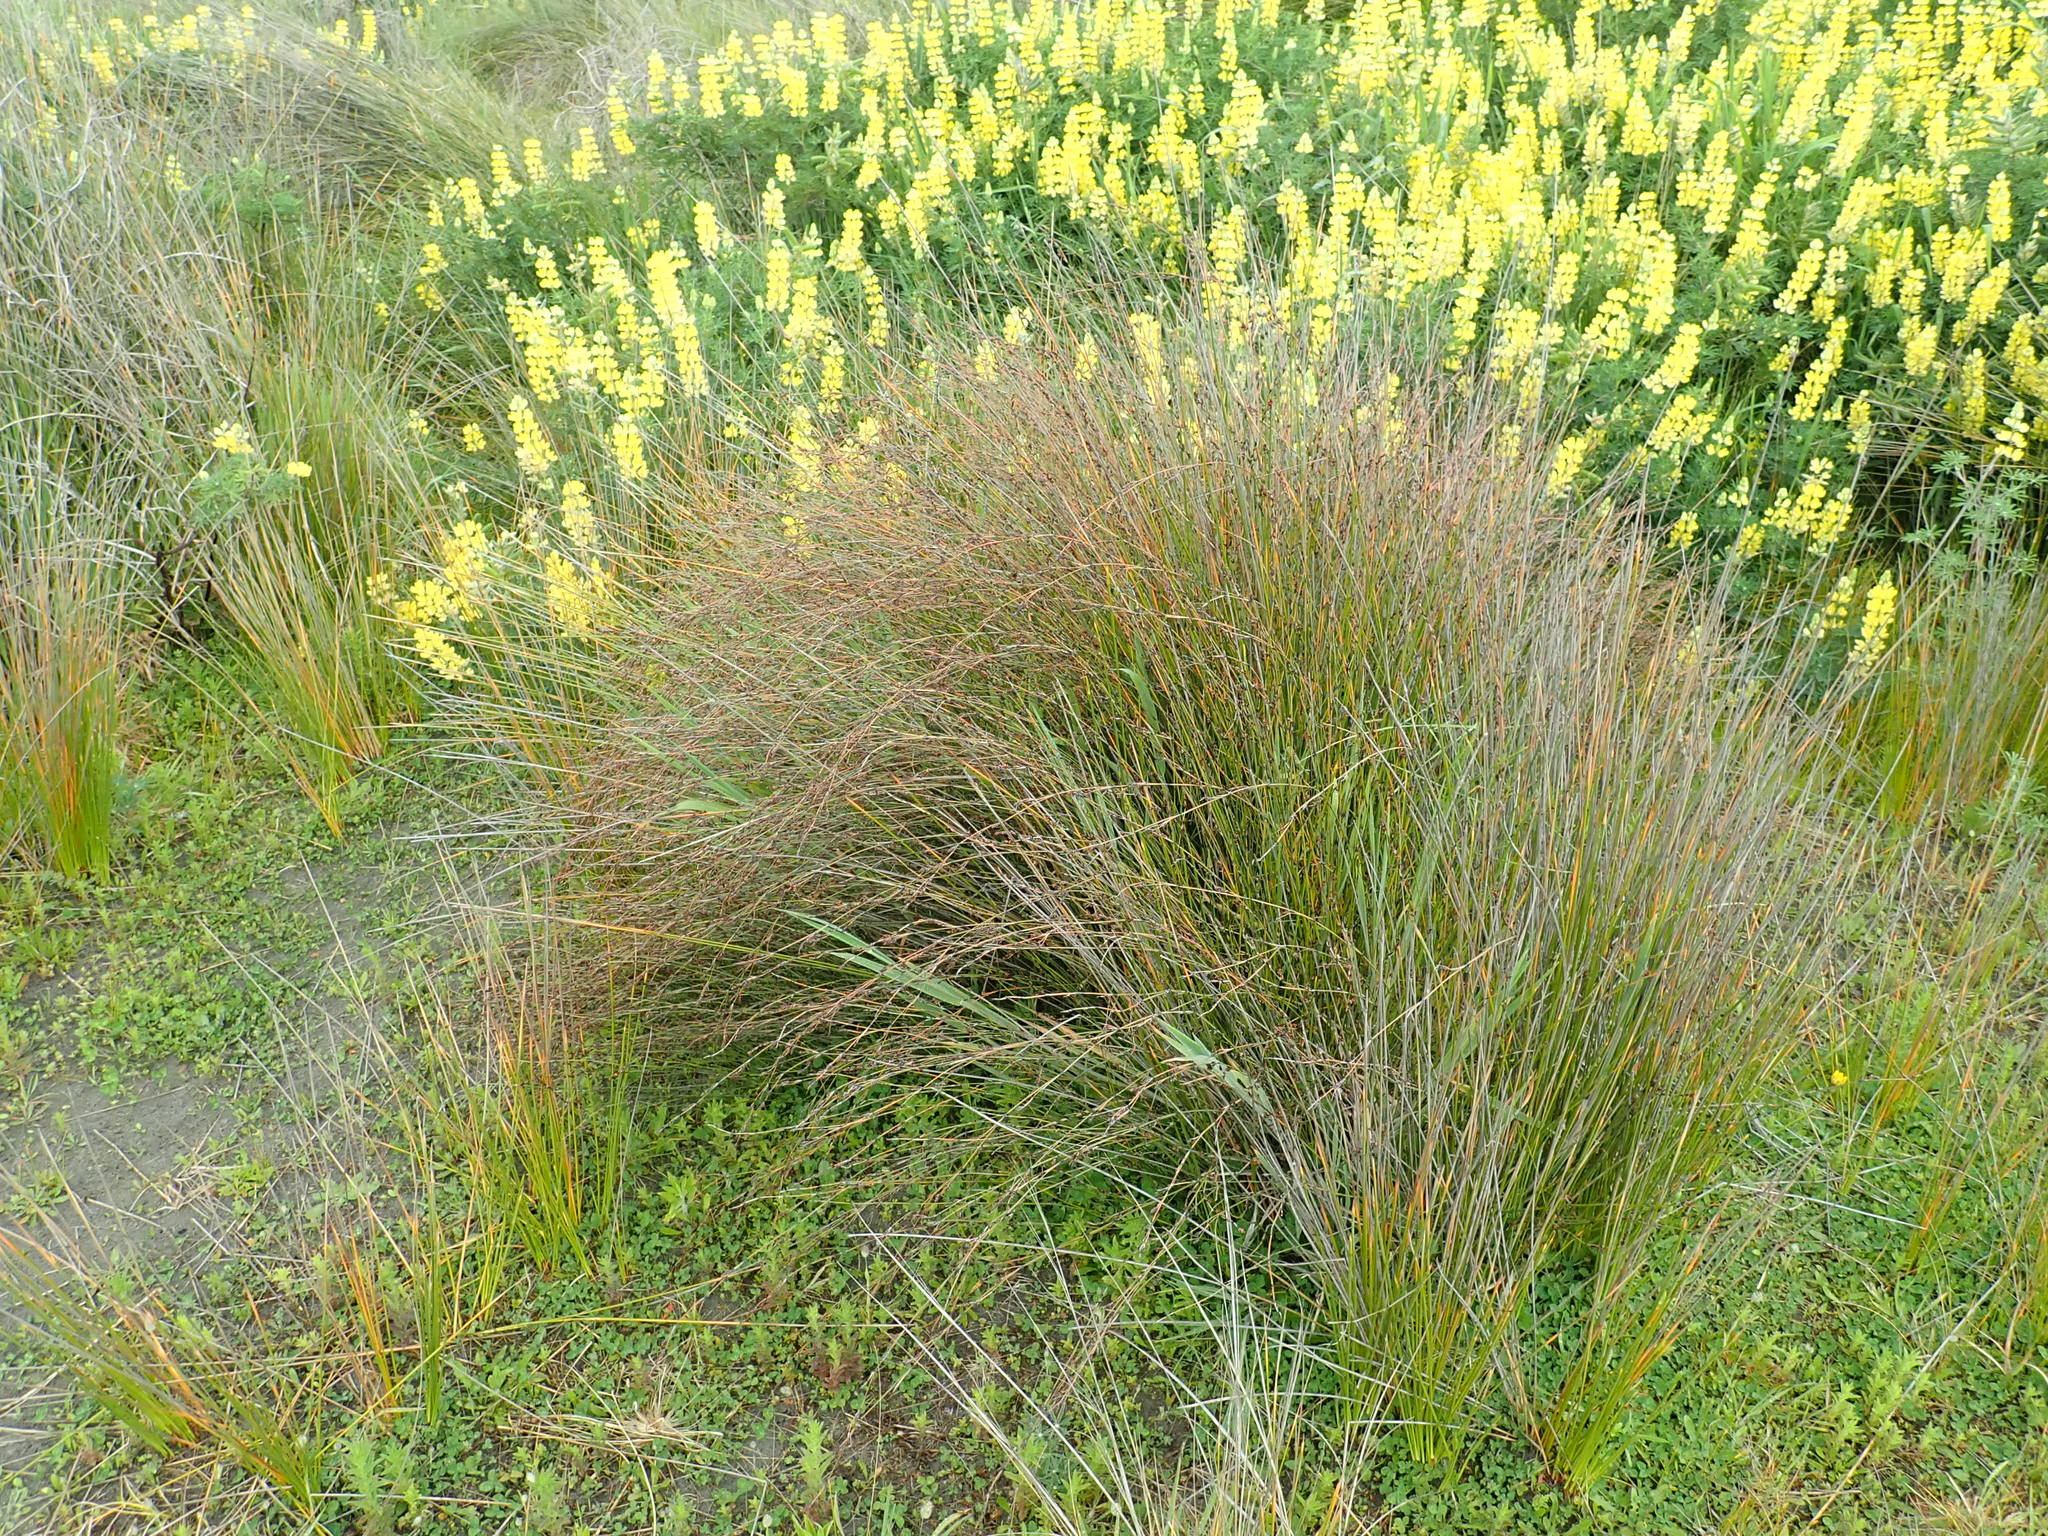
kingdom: Plantae
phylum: Tracheophyta
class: Liliopsida
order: Poales
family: Restionaceae
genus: Apodasmia
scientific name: Apodasmia similis
